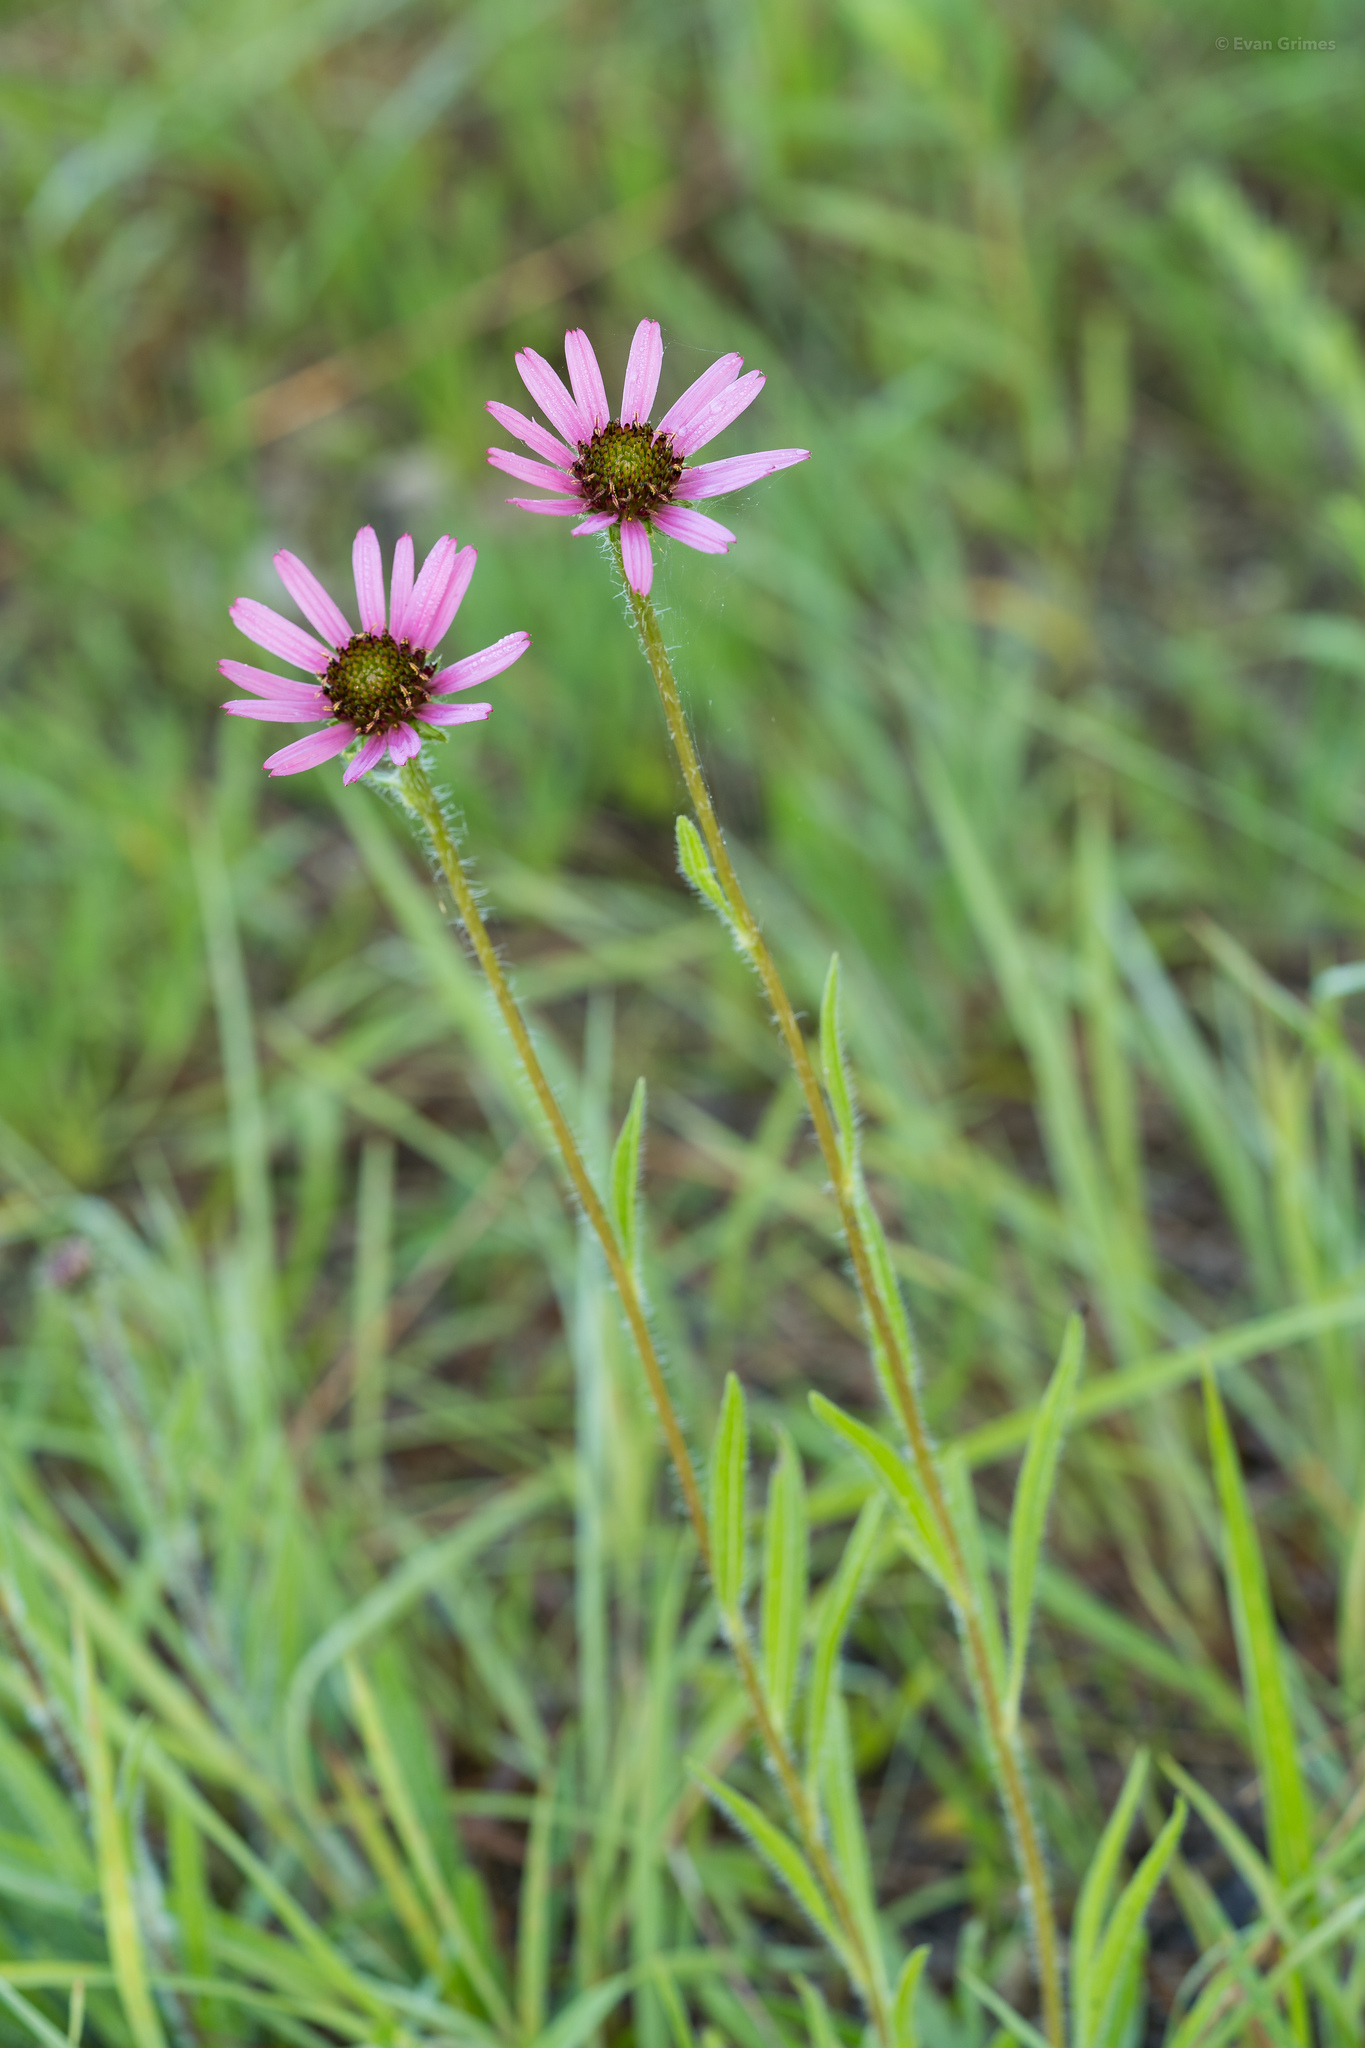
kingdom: Plantae
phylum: Tracheophyta
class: Magnoliopsida
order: Asterales
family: Asteraceae
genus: Echinacea
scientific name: Echinacea tennesseensis
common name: Tennessee purple-coneflower
